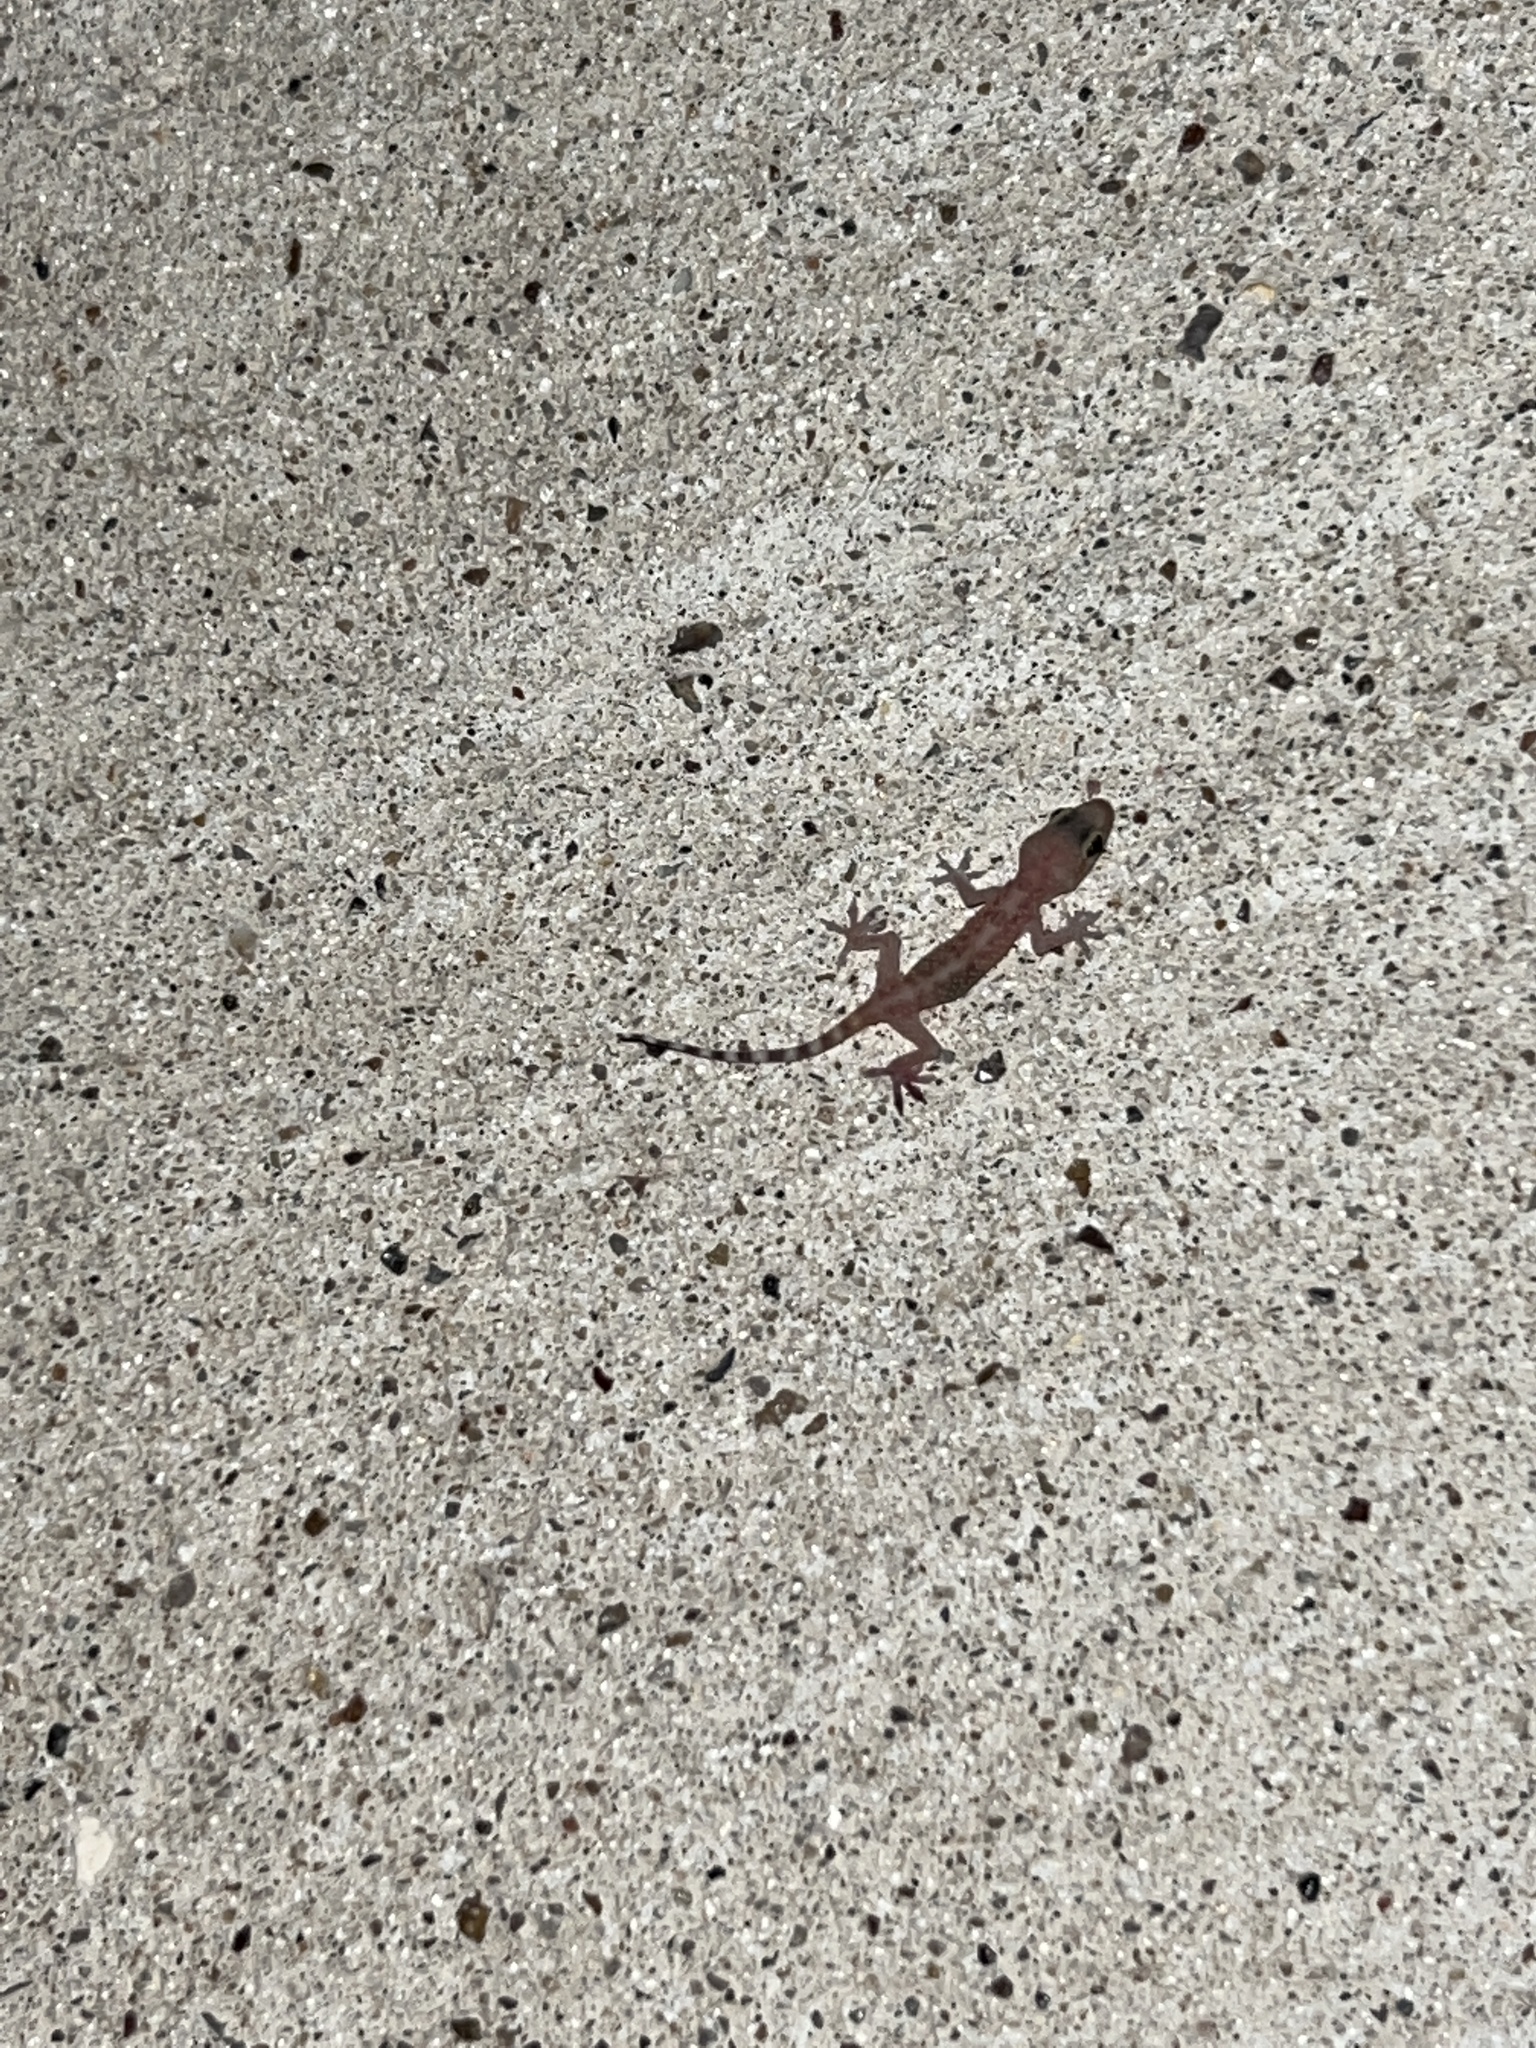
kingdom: Animalia
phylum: Chordata
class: Squamata
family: Gekkonidae
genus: Hemidactylus
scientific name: Hemidactylus turcicus
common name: Turkish gecko
